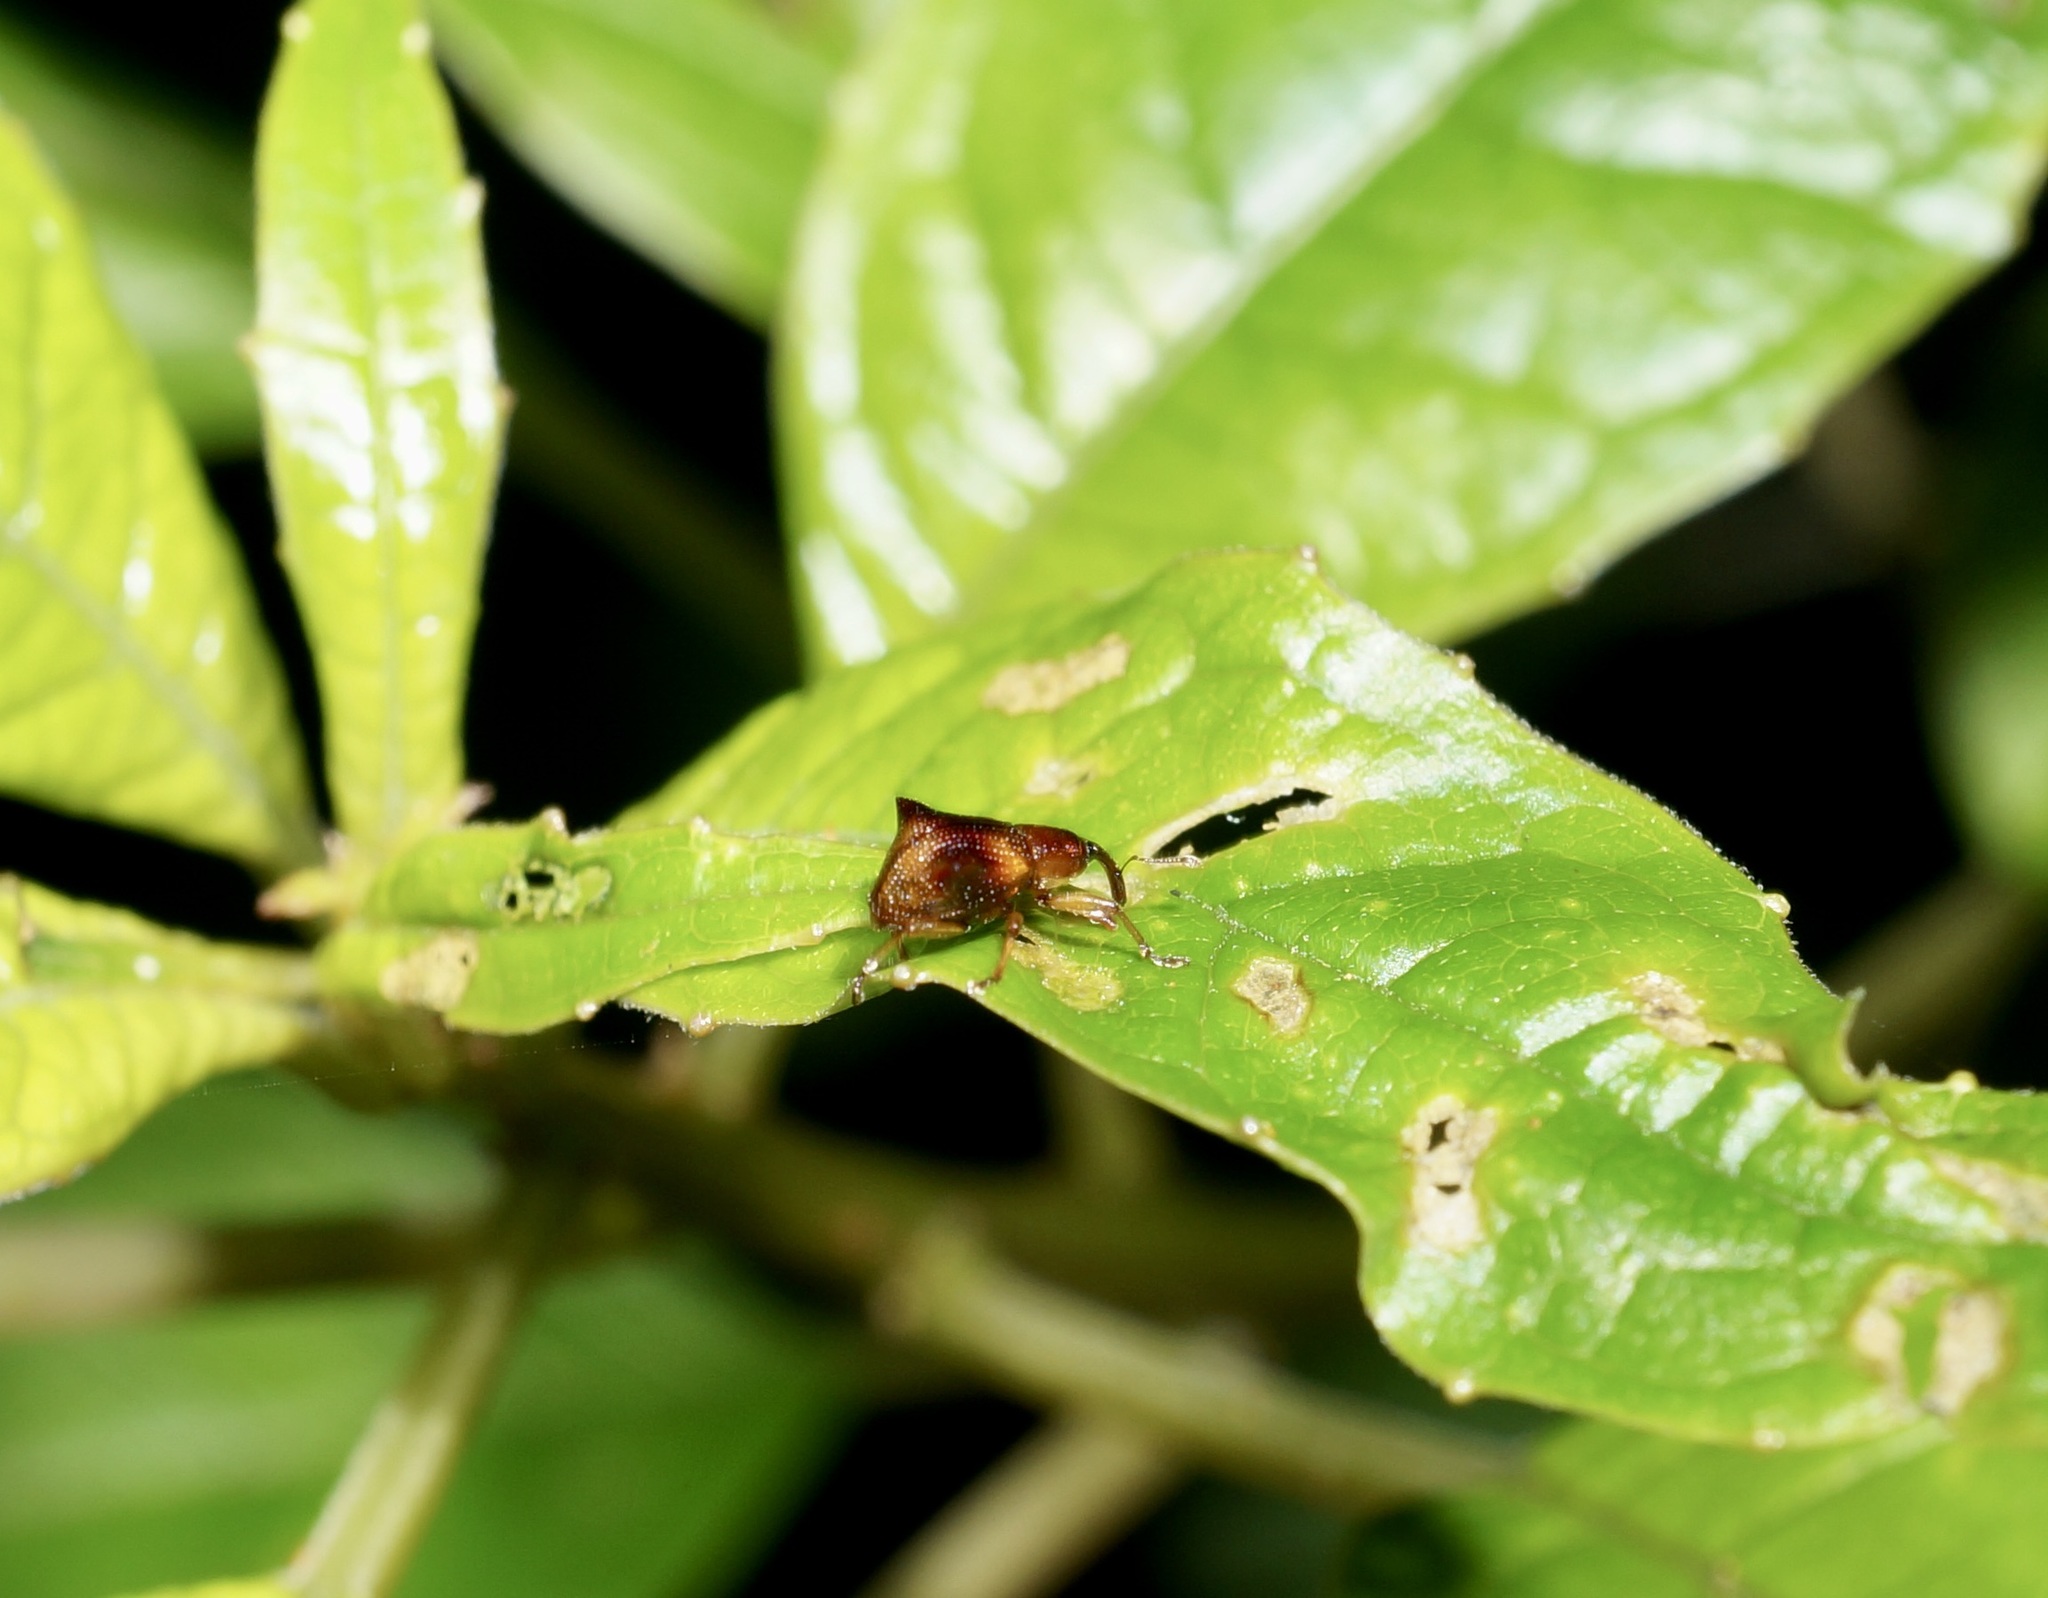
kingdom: Animalia
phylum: Arthropoda
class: Insecta
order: Coleoptera
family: Curculionidae
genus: Oropterus
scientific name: Oropterus coniger
